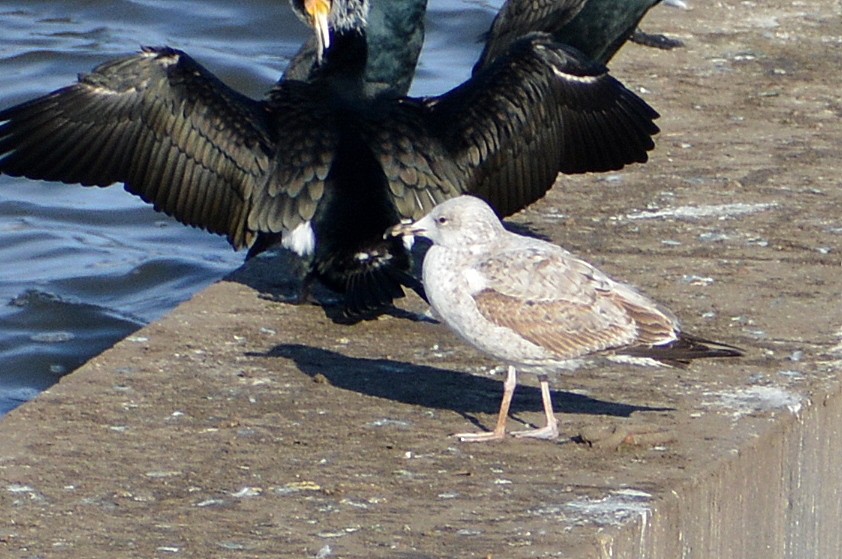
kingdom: Animalia
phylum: Chordata
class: Aves
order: Charadriiformes
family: Laridae
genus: Larus
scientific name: Larus cachinnans
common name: Caspian gull
